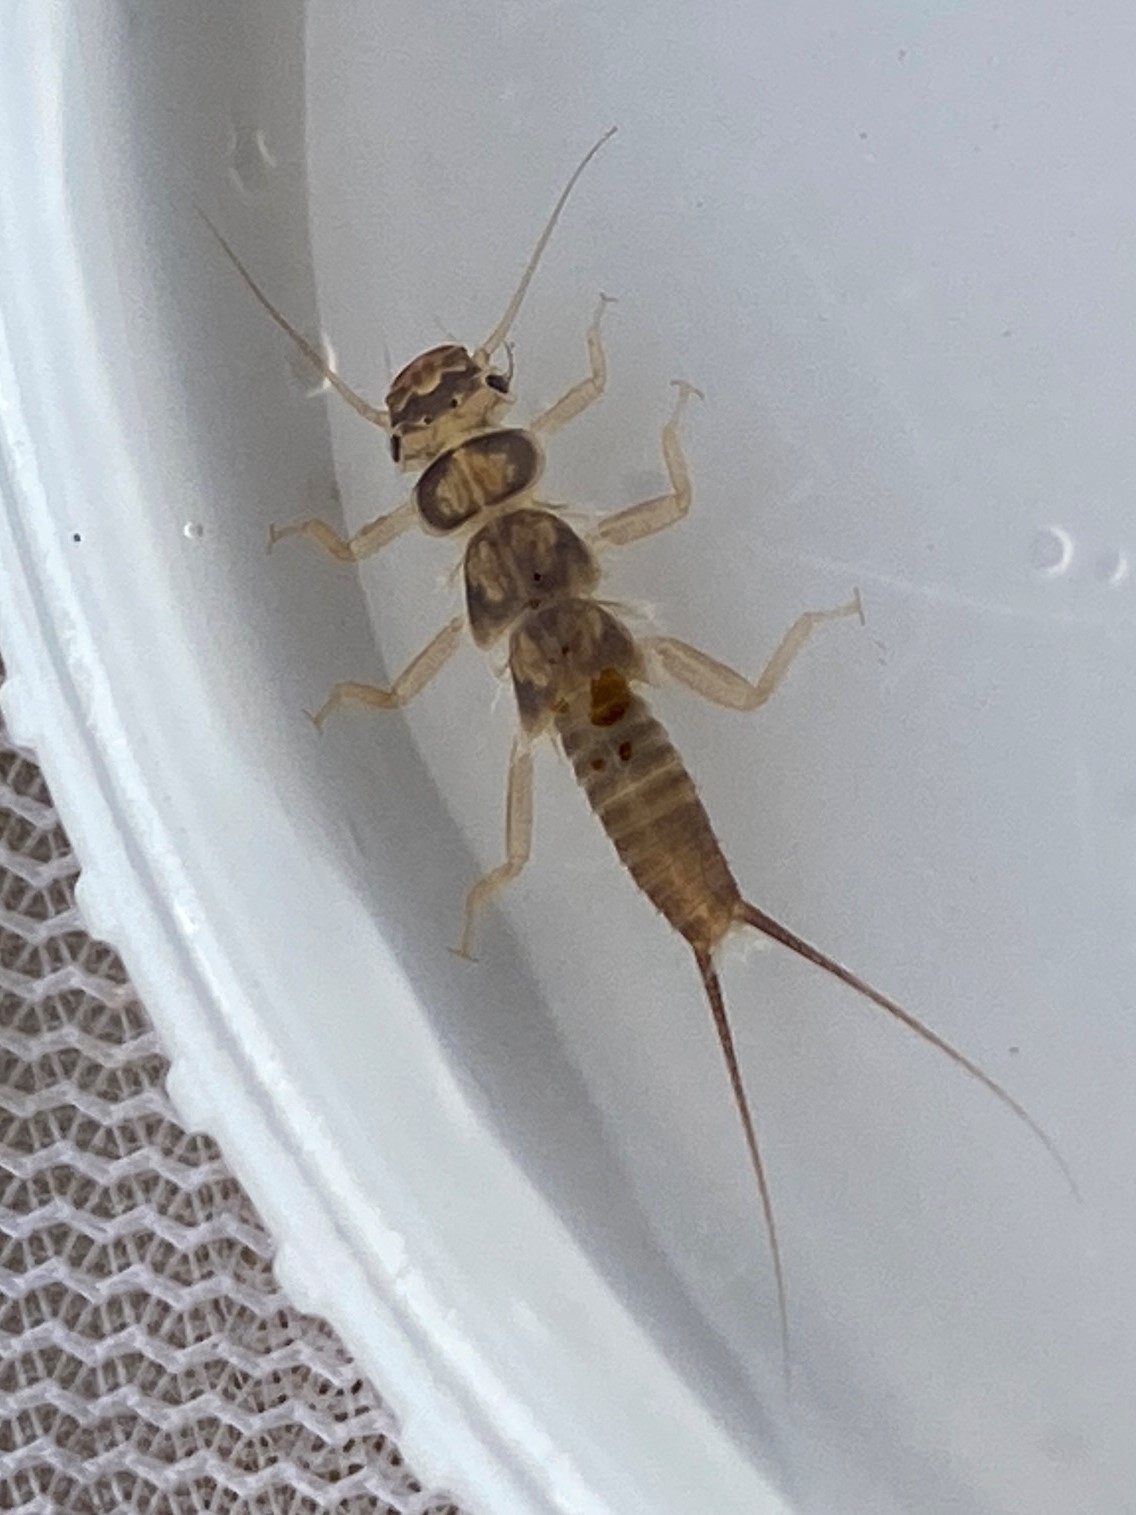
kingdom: Animalia
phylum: Arthropoda
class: Insecta
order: Plecoptera
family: Perlidae
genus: Perlesta
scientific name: Perlesta cinctipes
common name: Plains stone
